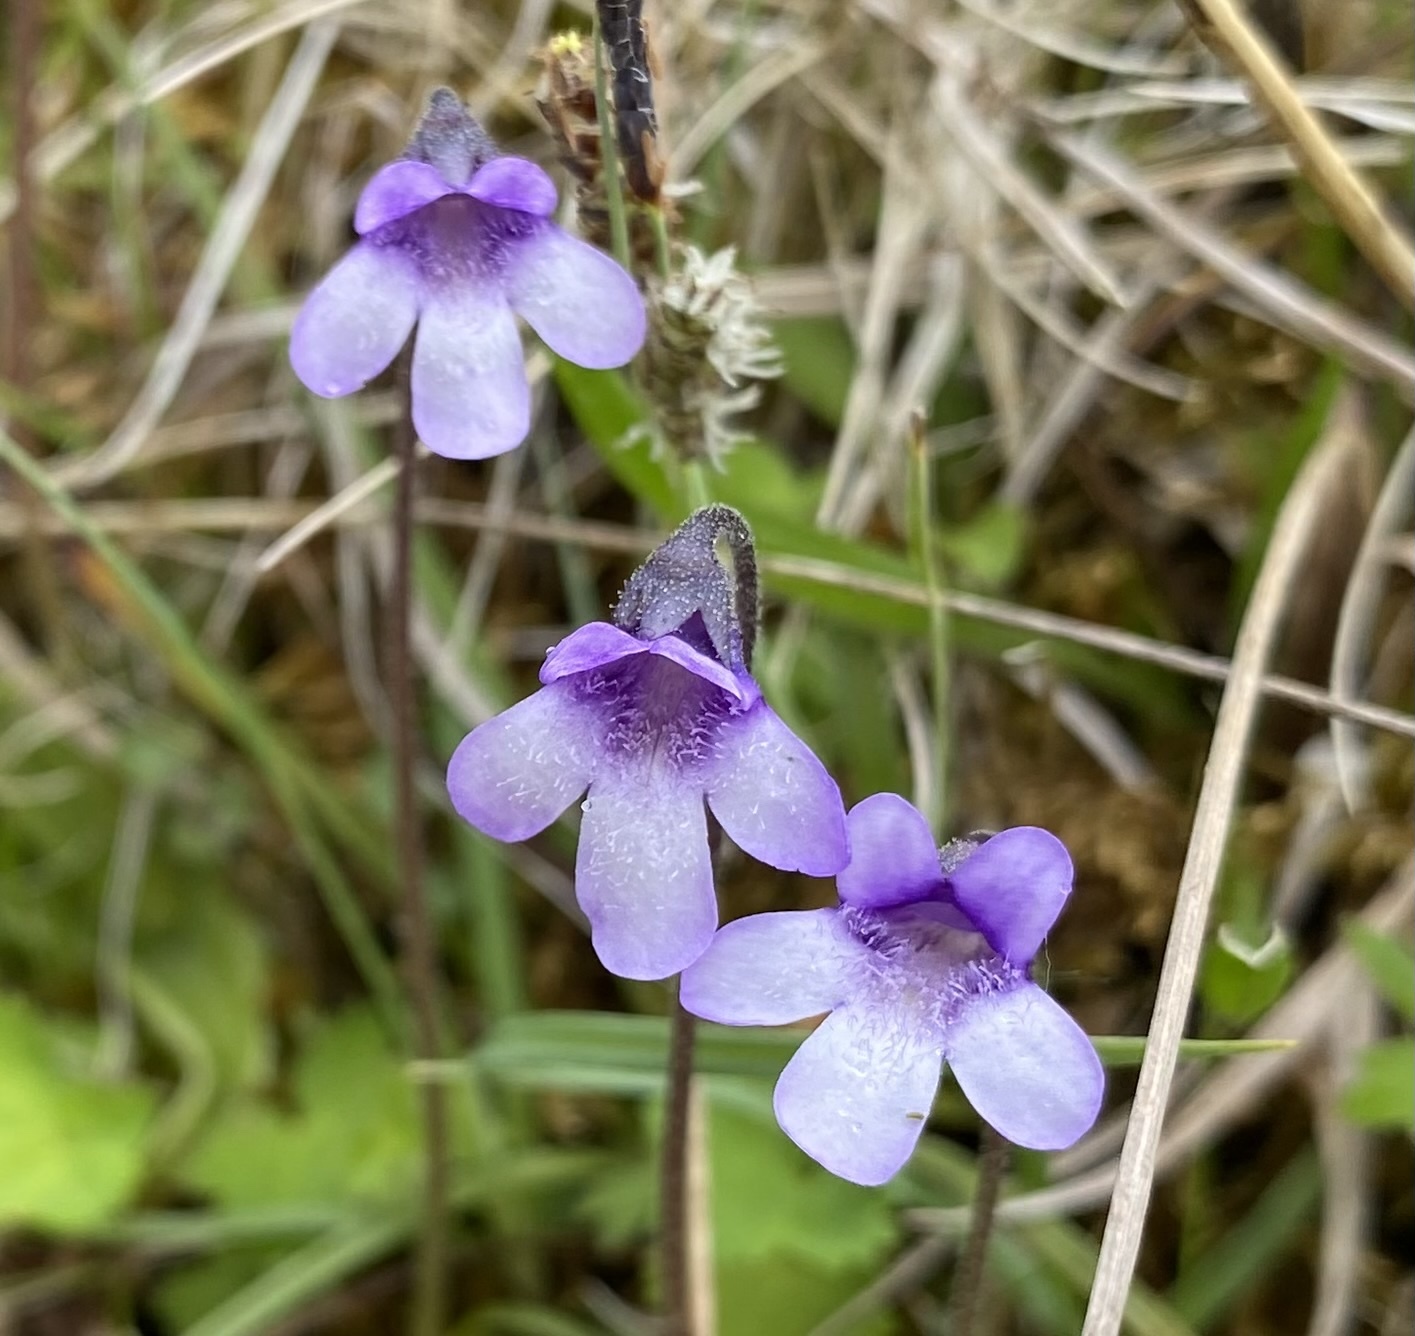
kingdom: Plantae
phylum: Tracheophyta
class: Magnoliopsida
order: Lamiales
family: Lentibulariaceae
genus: Pinguicula
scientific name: Pinguicula vulgaris
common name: Common butterwort
